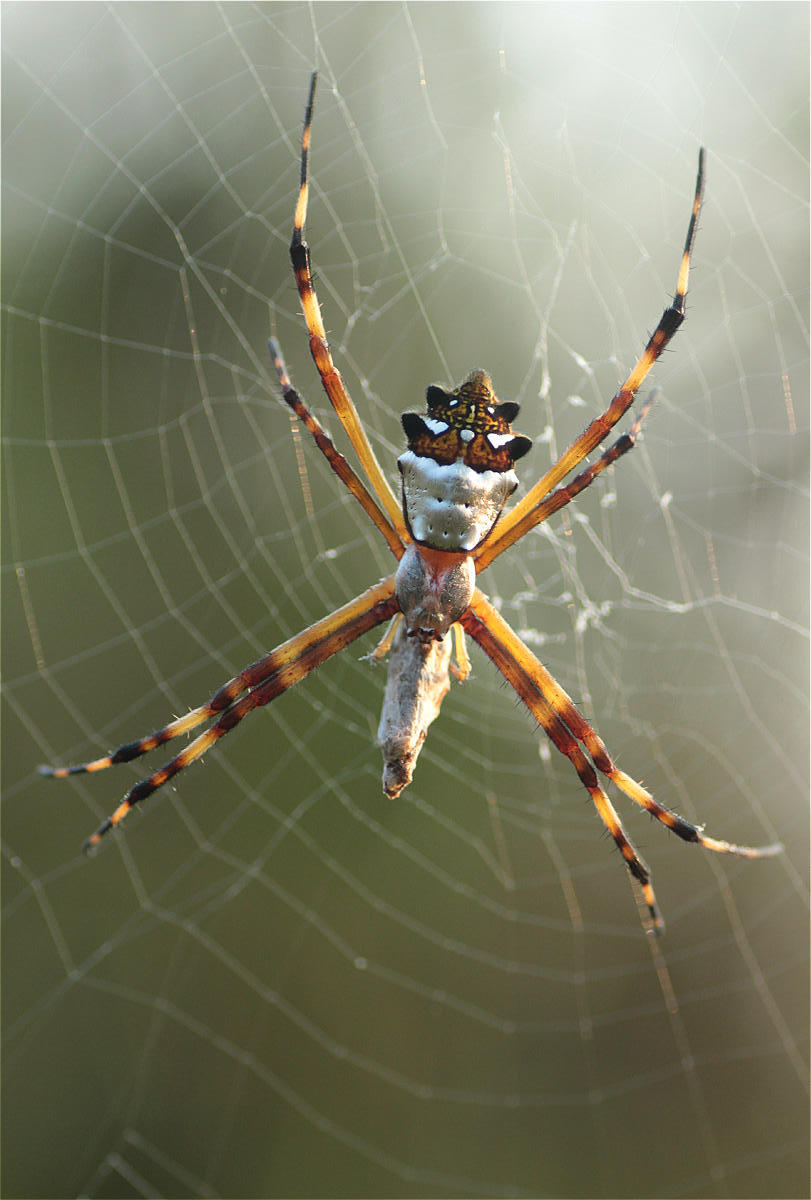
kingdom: Animalia
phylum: Arthropoda
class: Arachnida
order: Araneae
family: Araneidae
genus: Argiope
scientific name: Argiope argentata
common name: Orb weavers
